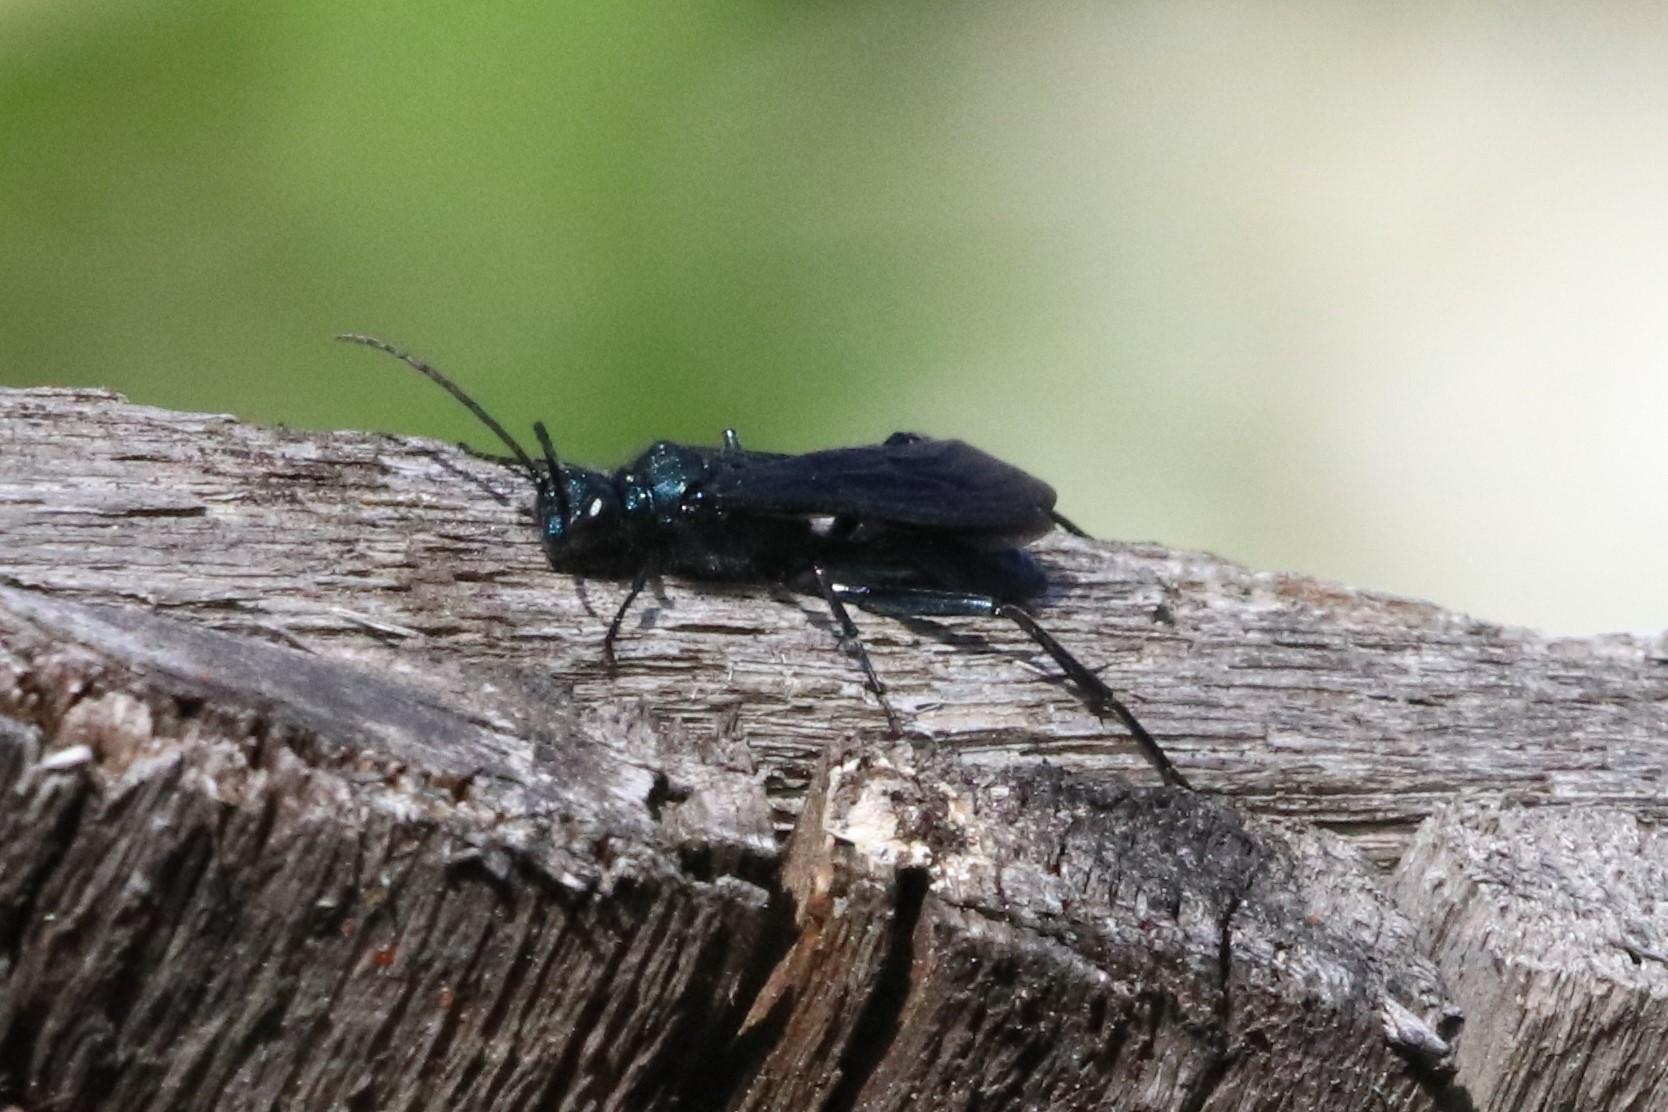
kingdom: Animalia
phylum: Arthropoda
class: Insecta
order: Hymenoptera
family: Sphecidae
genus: Chalybion
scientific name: Chalybion californicum
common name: Mud dauber
